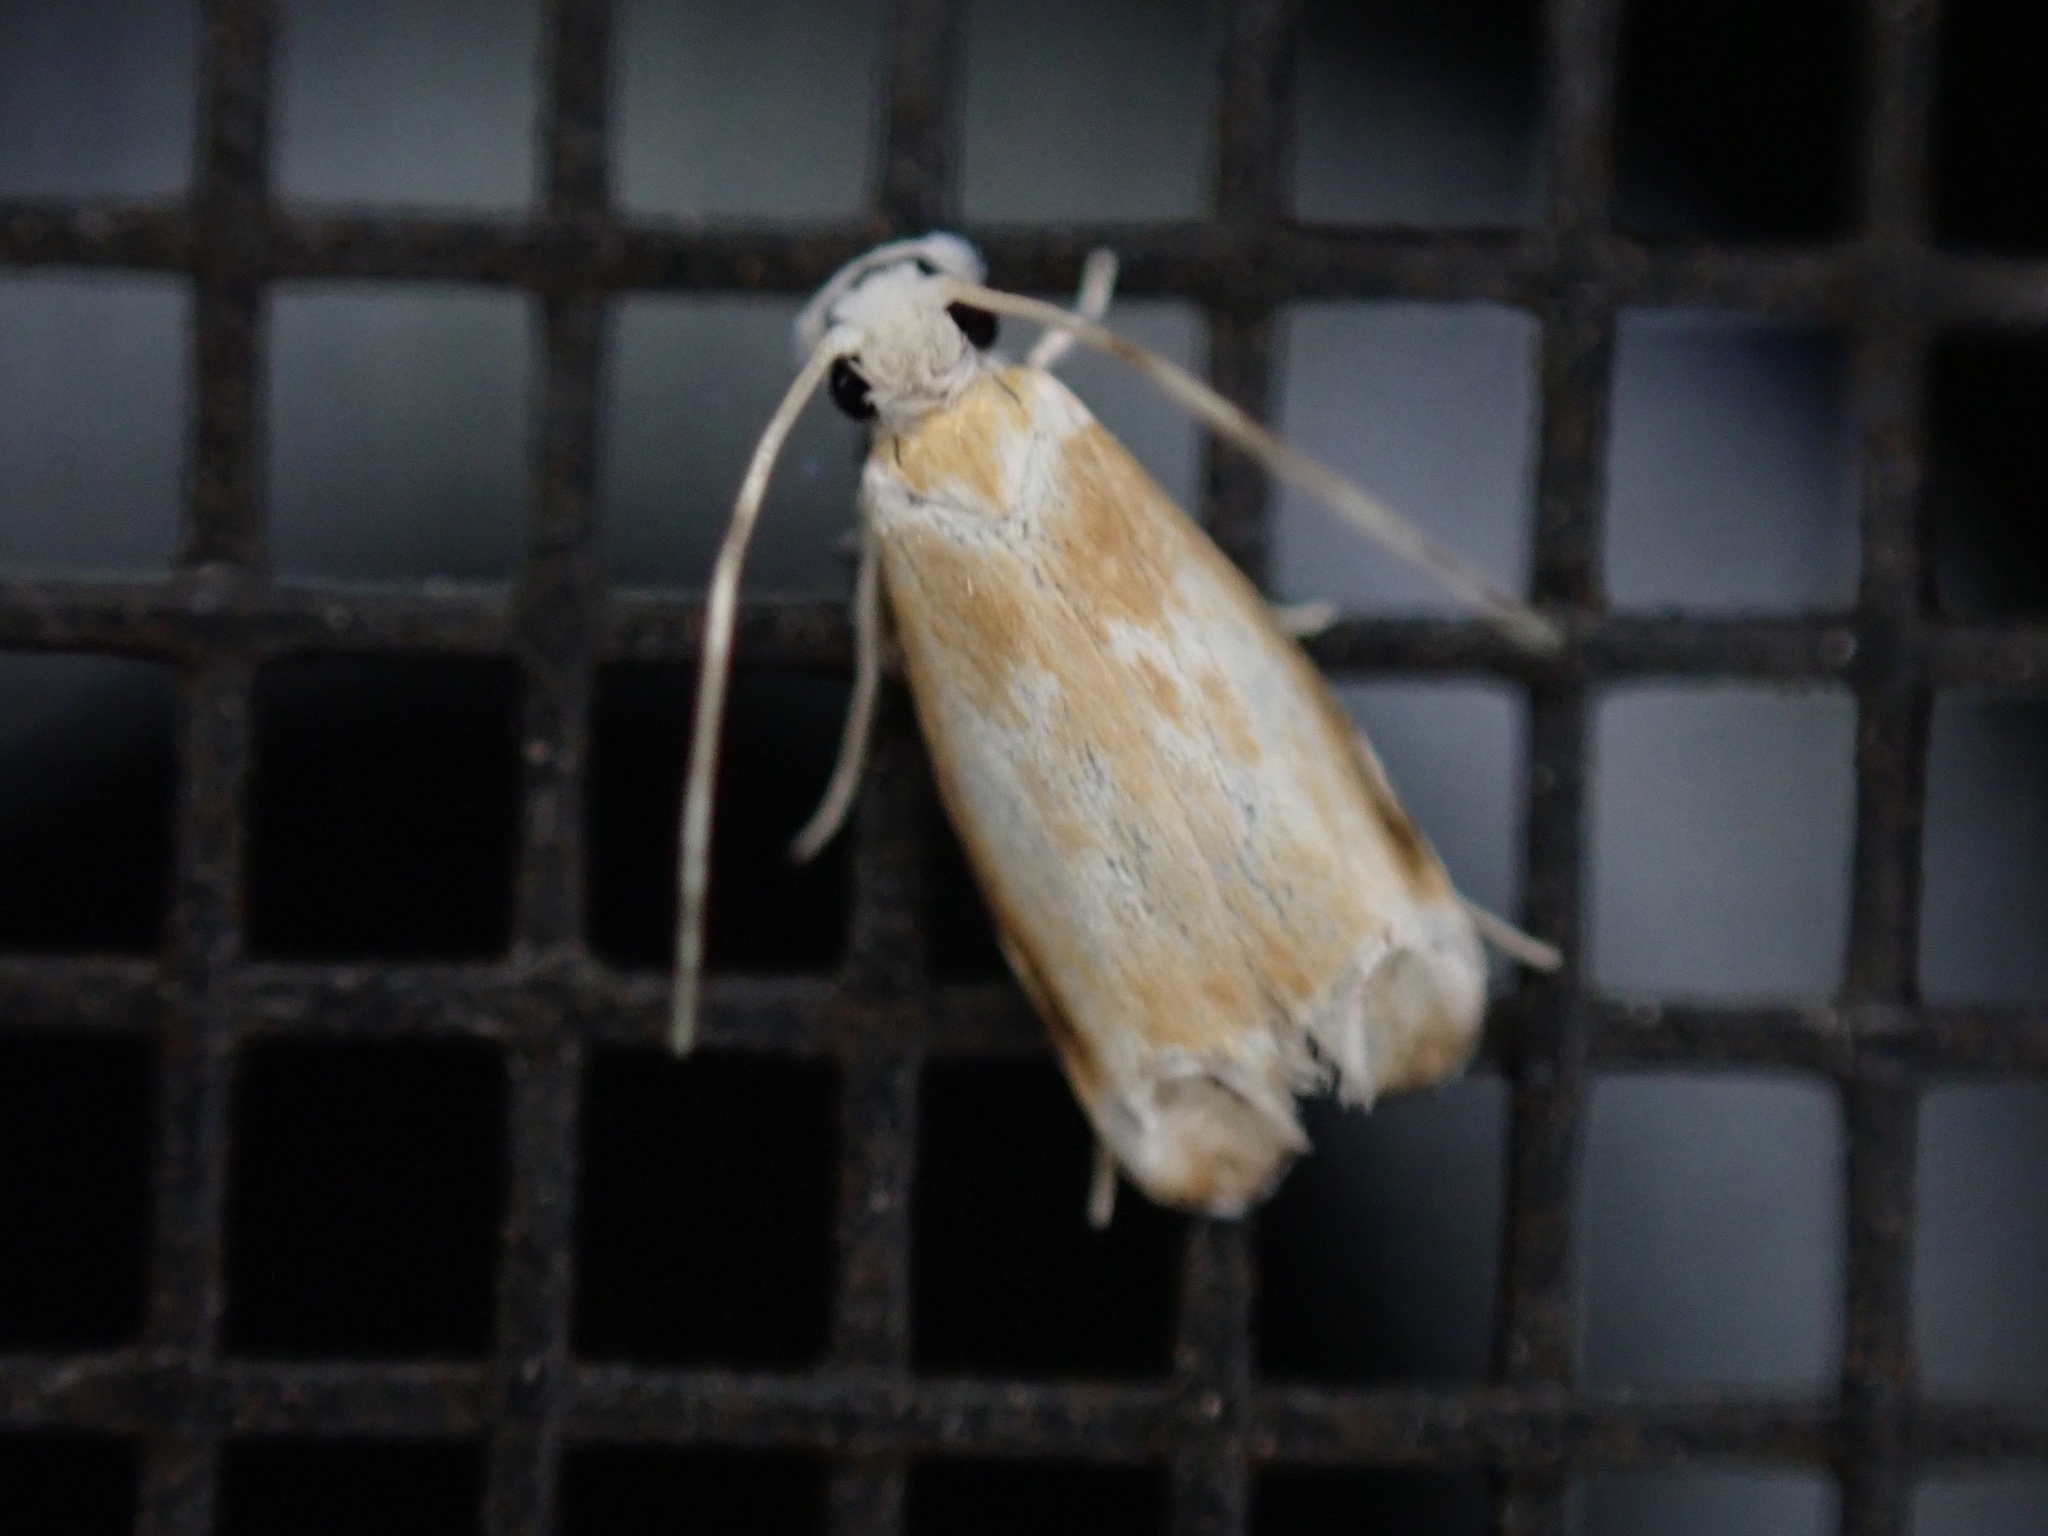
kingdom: Animalia
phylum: Arthropoda
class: Insecta
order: Lepidoptera
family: Dryadaulidae
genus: Dryadaula
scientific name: Dryadaula terpsichorella
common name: Dancing moth
